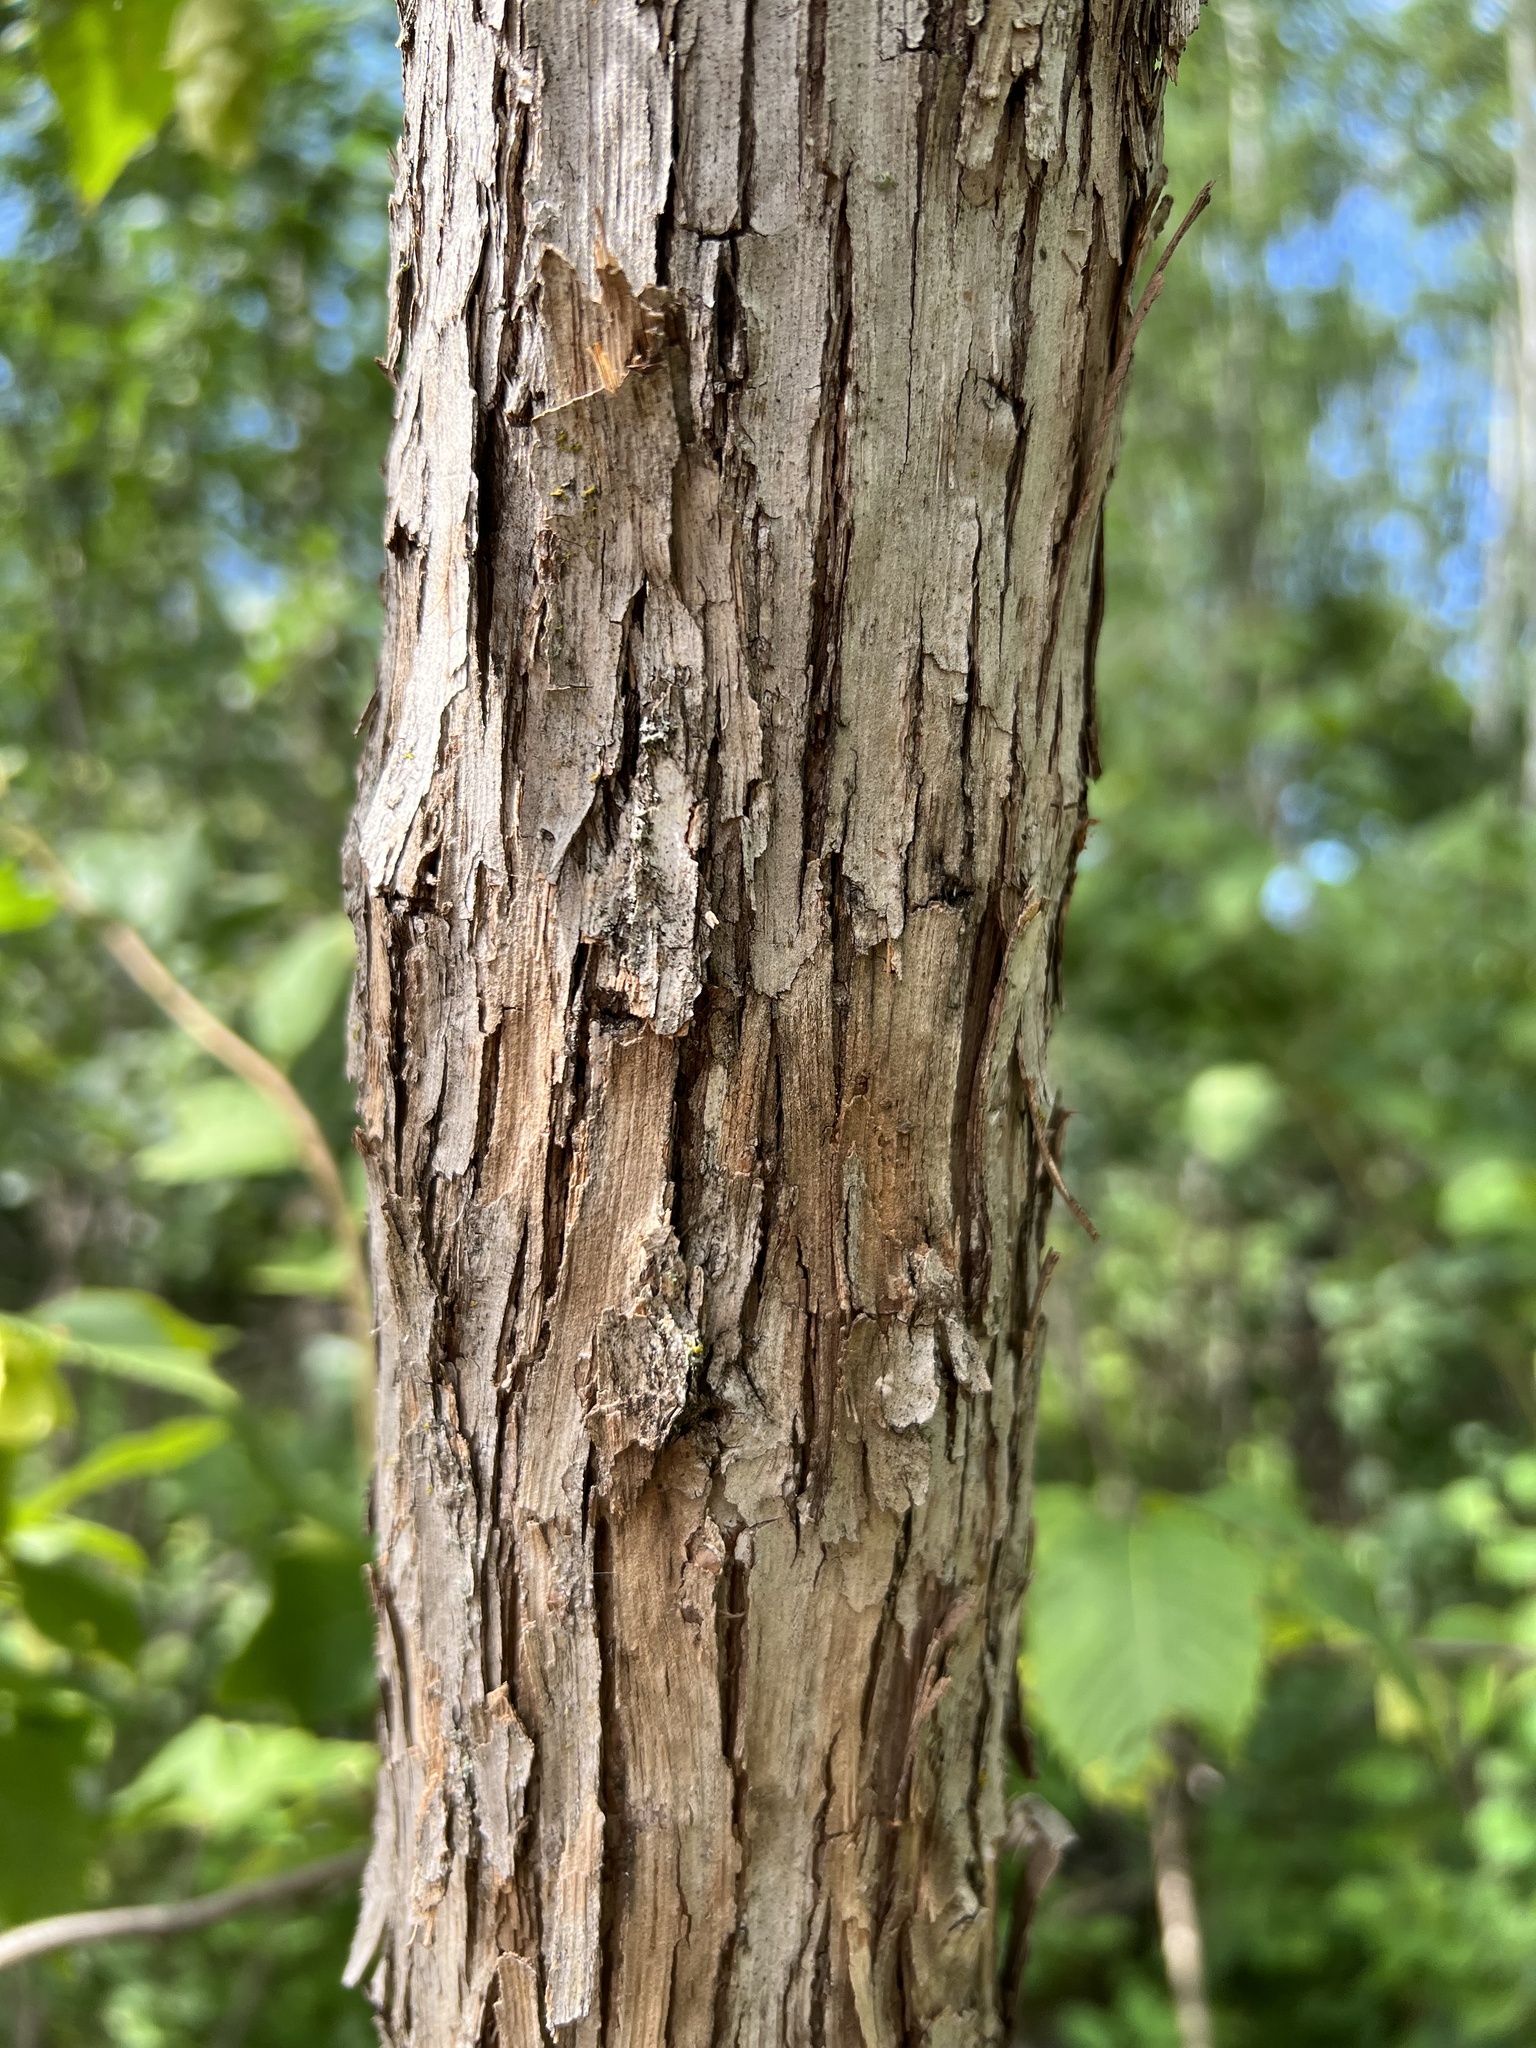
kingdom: Plantae
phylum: Tracheophyta
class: Magnoliopsida
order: Fagales
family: Betulaceae
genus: Ostrya
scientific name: Ostrya virginiana
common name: Ironwood
